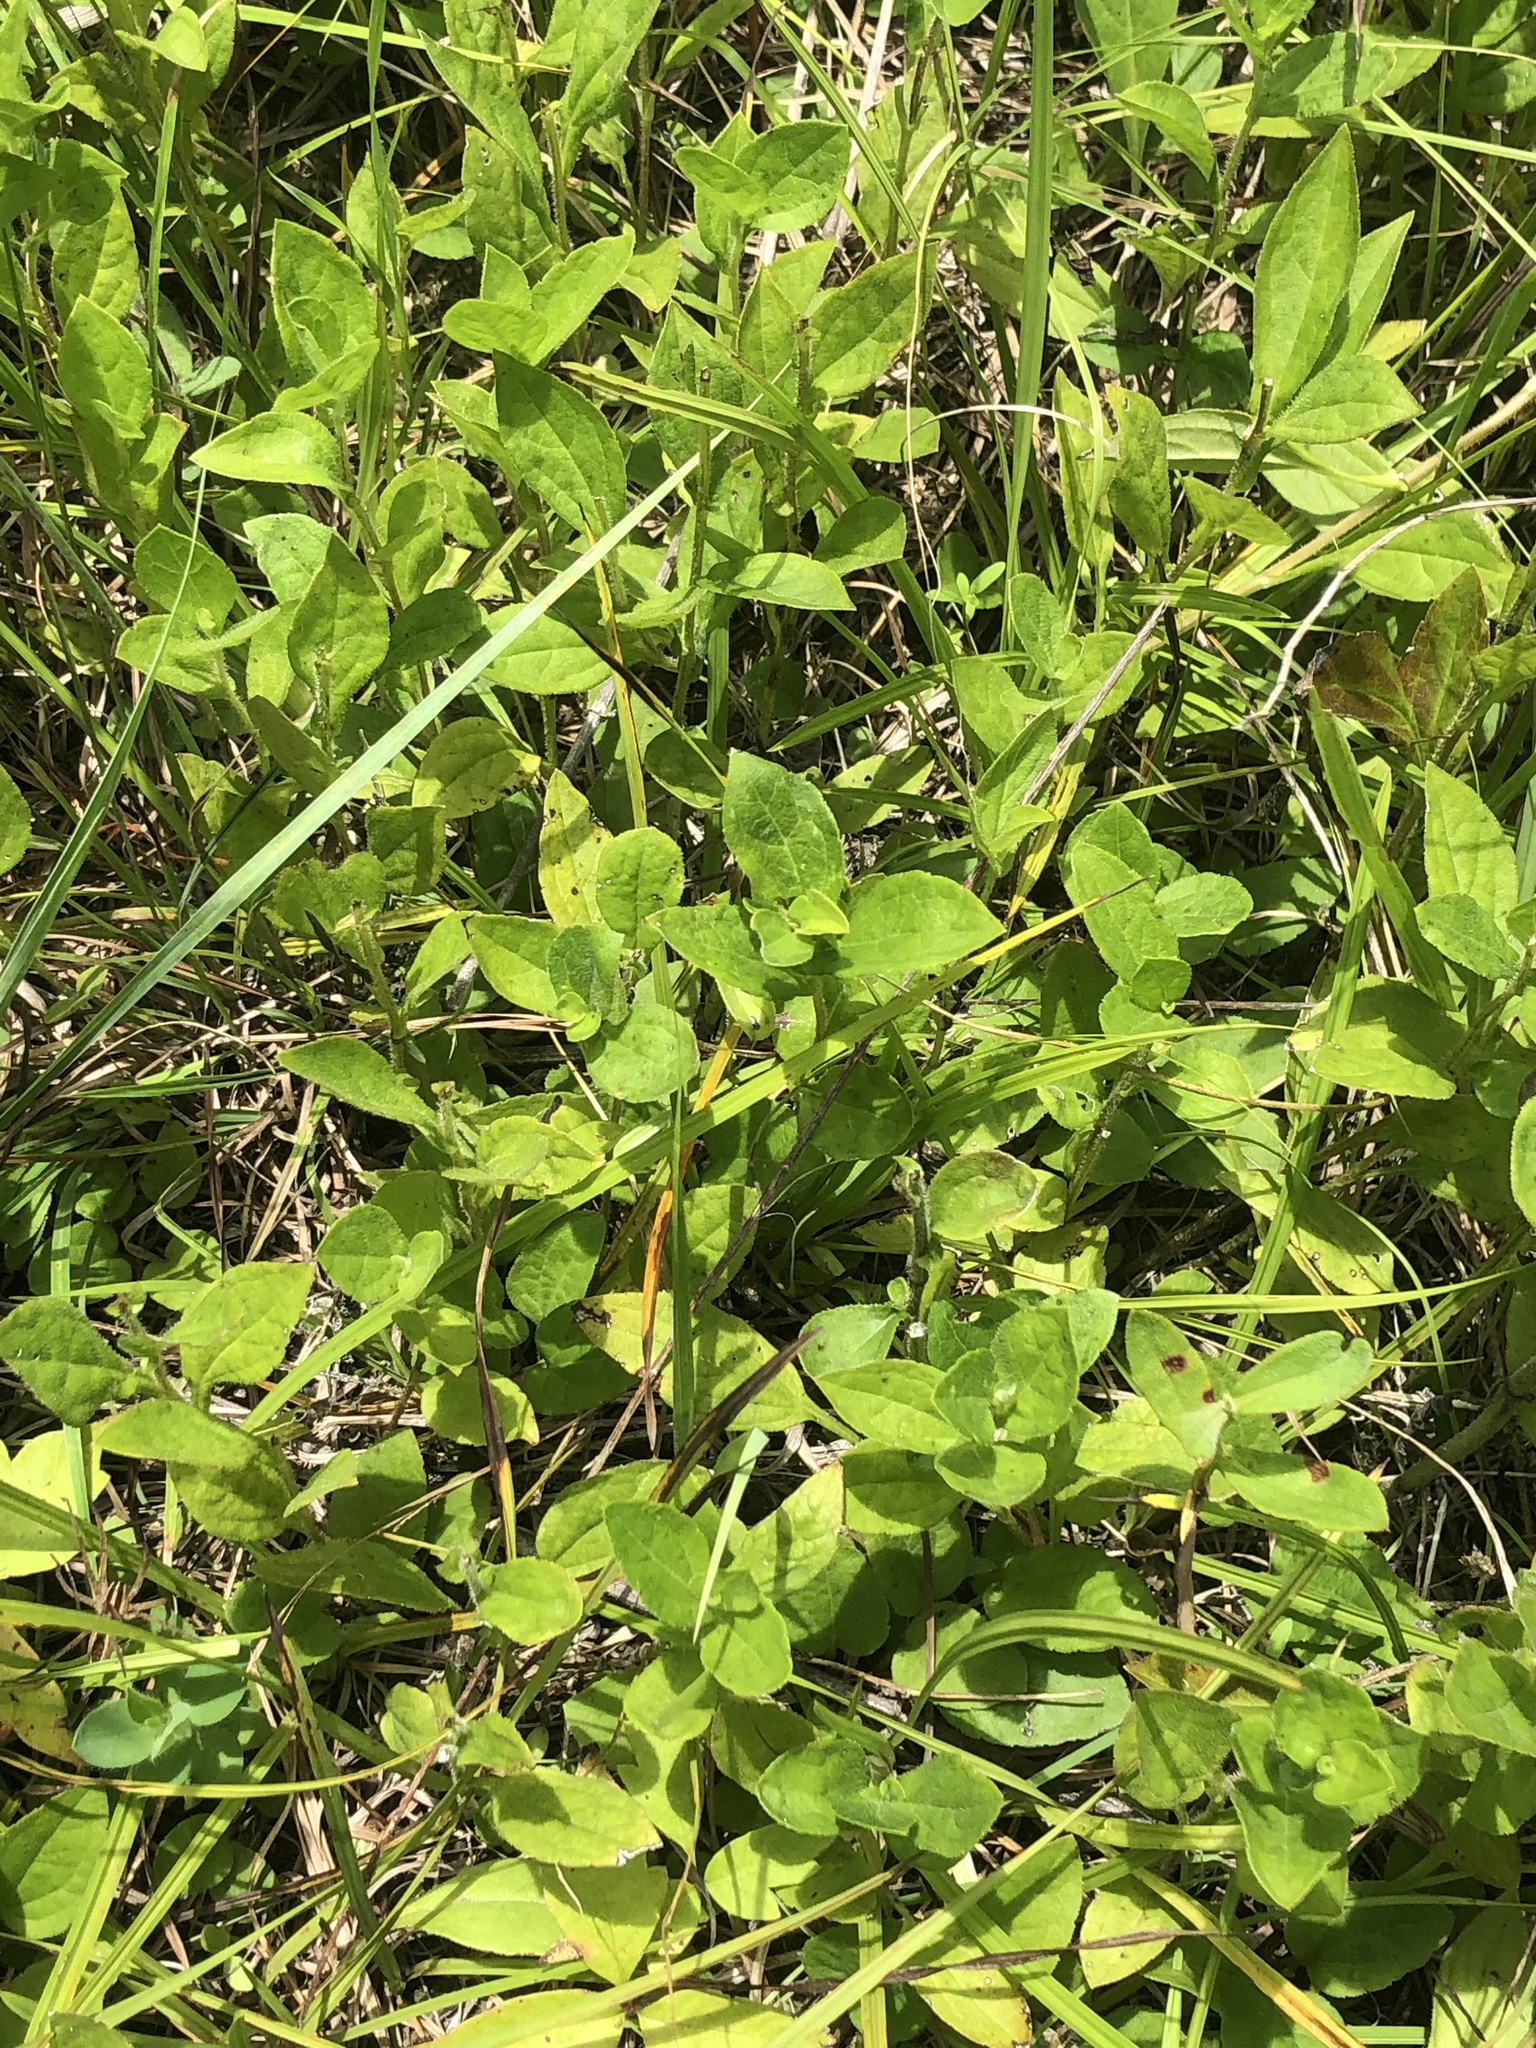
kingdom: Plantae
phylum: Tracheophyta
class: Magnoliopsida
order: Asterales
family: Asteraceae
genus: Rudbeckia
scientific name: Rudbeckia terranigrae
